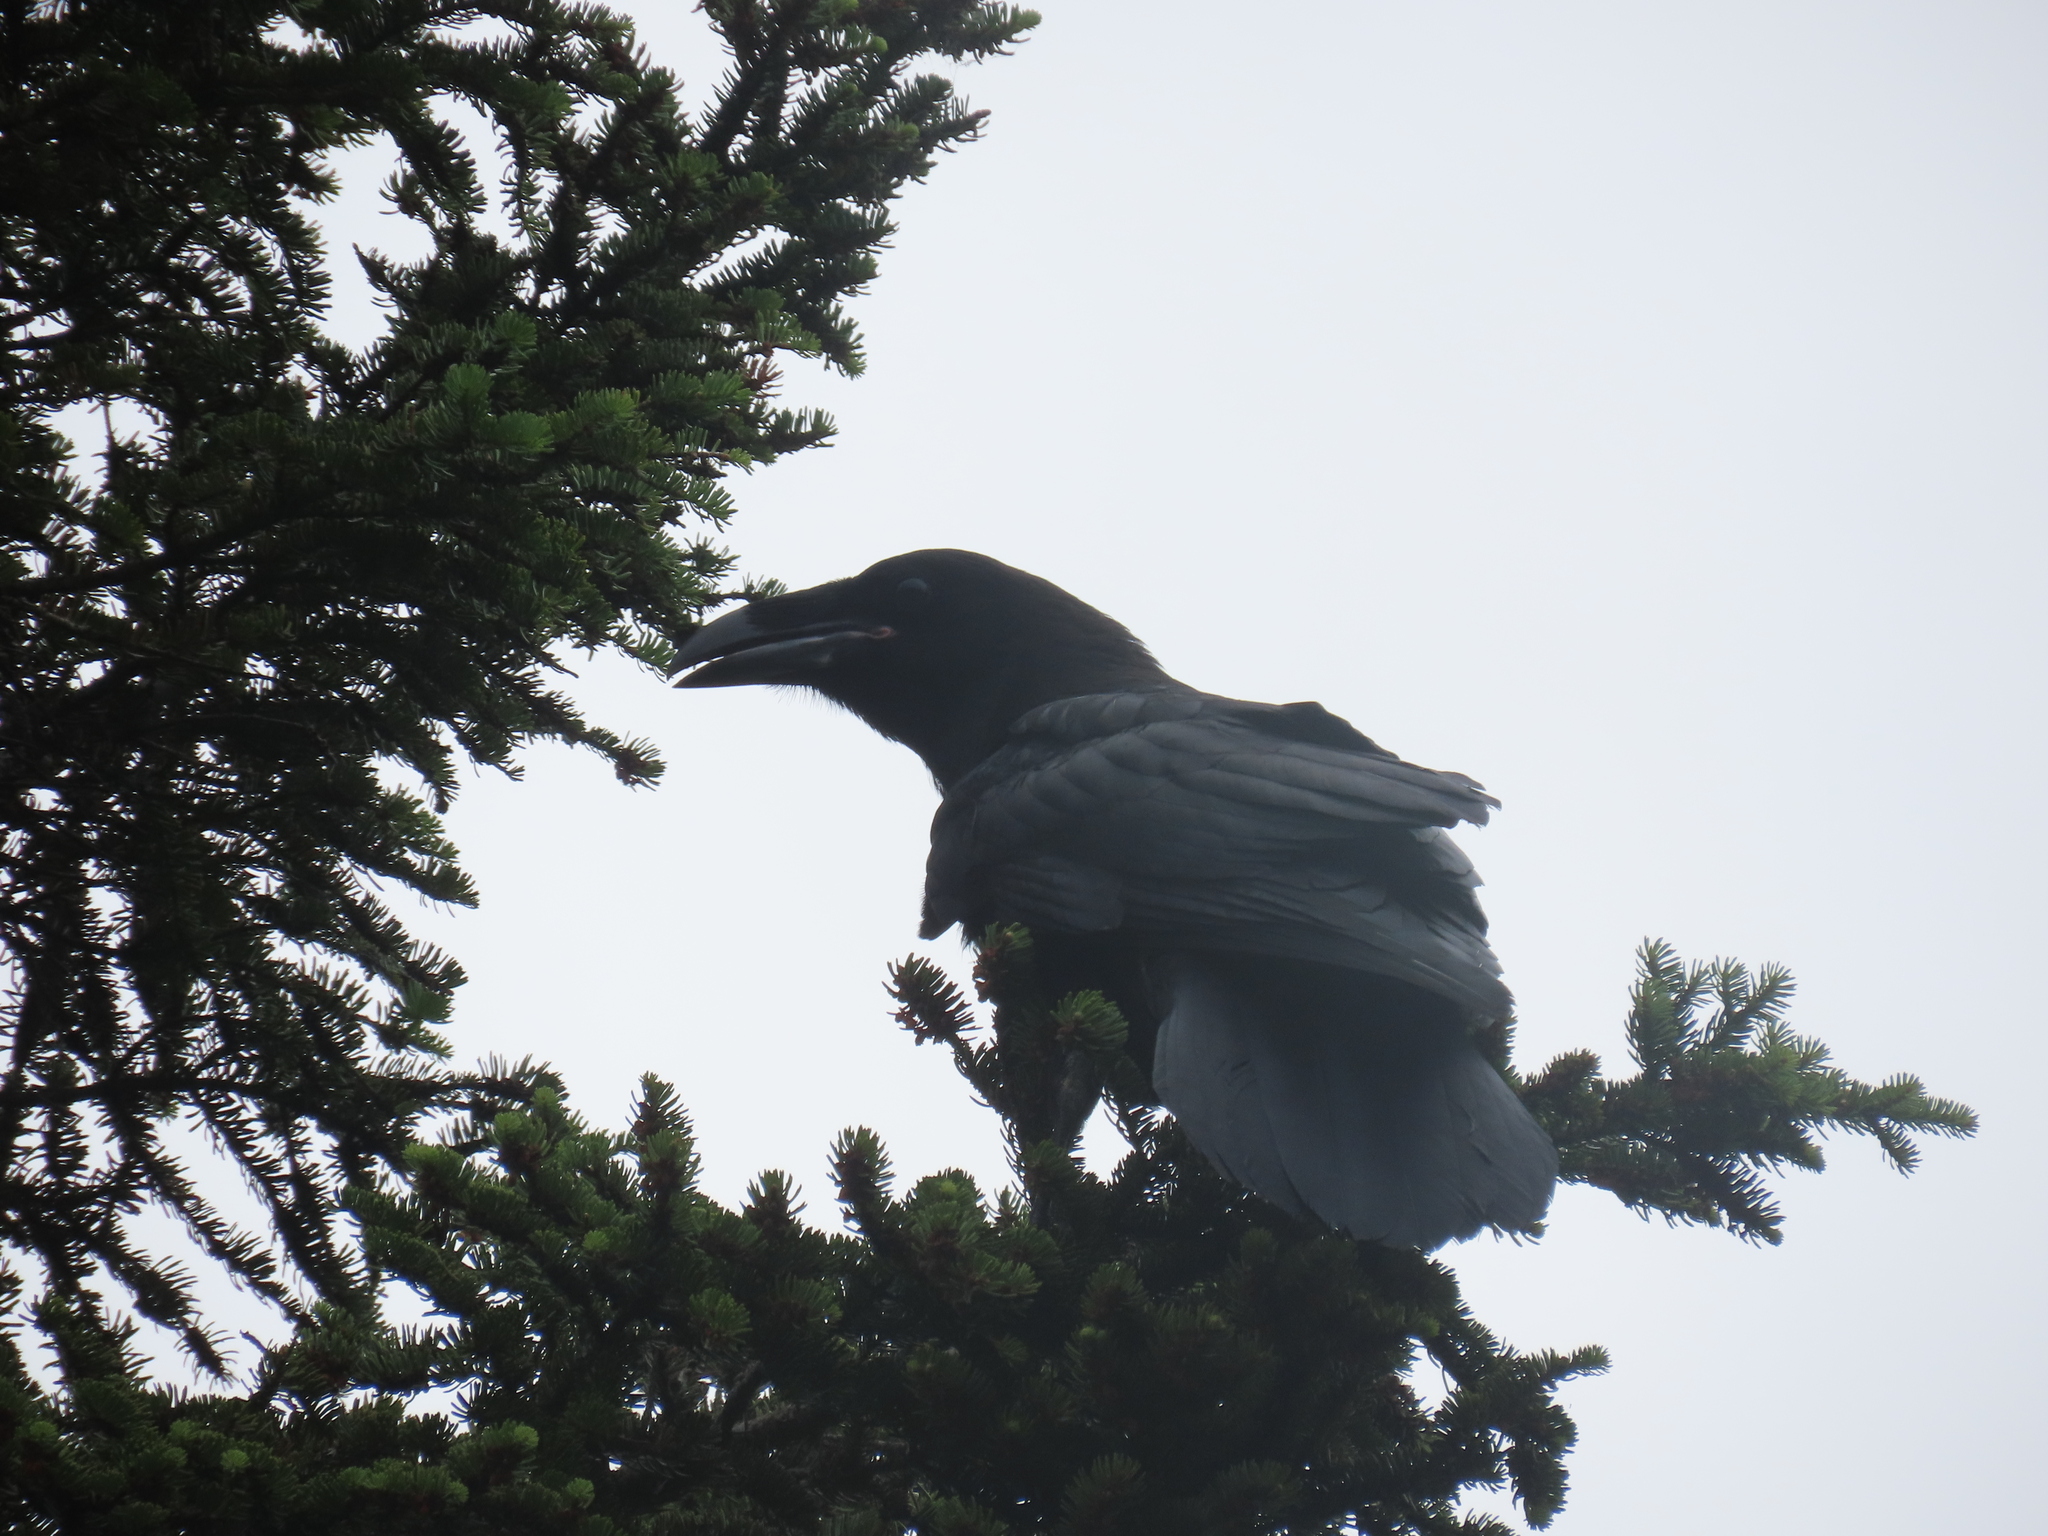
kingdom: Animalia
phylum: Chordata
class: Aves
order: Passeriformes
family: Corvidae
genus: Corvus
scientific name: Corvus corax
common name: Common raven
